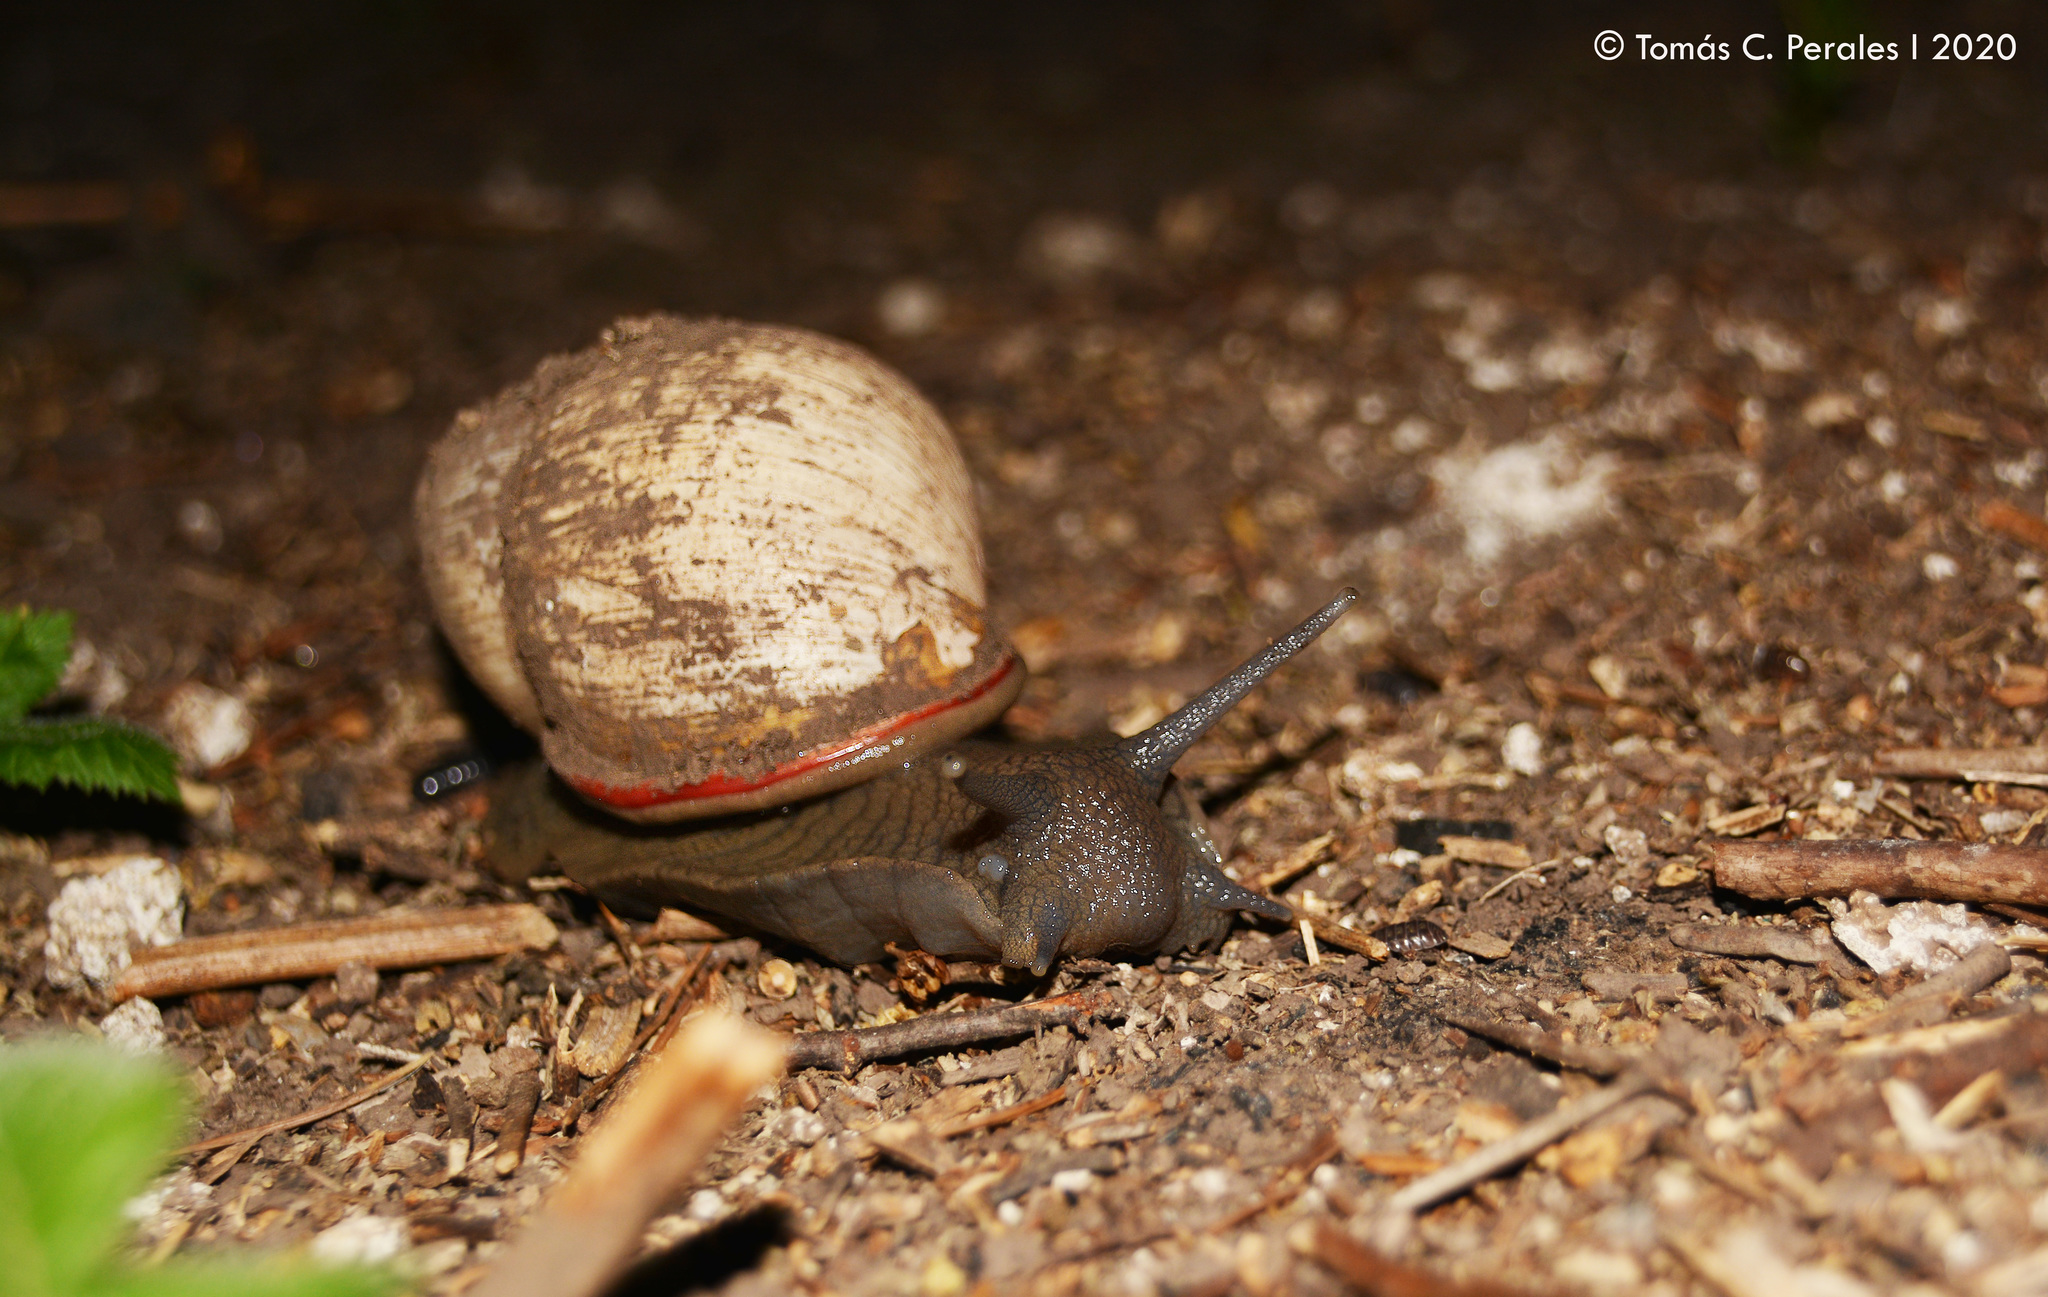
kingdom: Animalia
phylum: Mollusca
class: Gastropoda
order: Stylommatophora
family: Strophocheilidae
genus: Megalobulimus
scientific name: Megalobulimus
